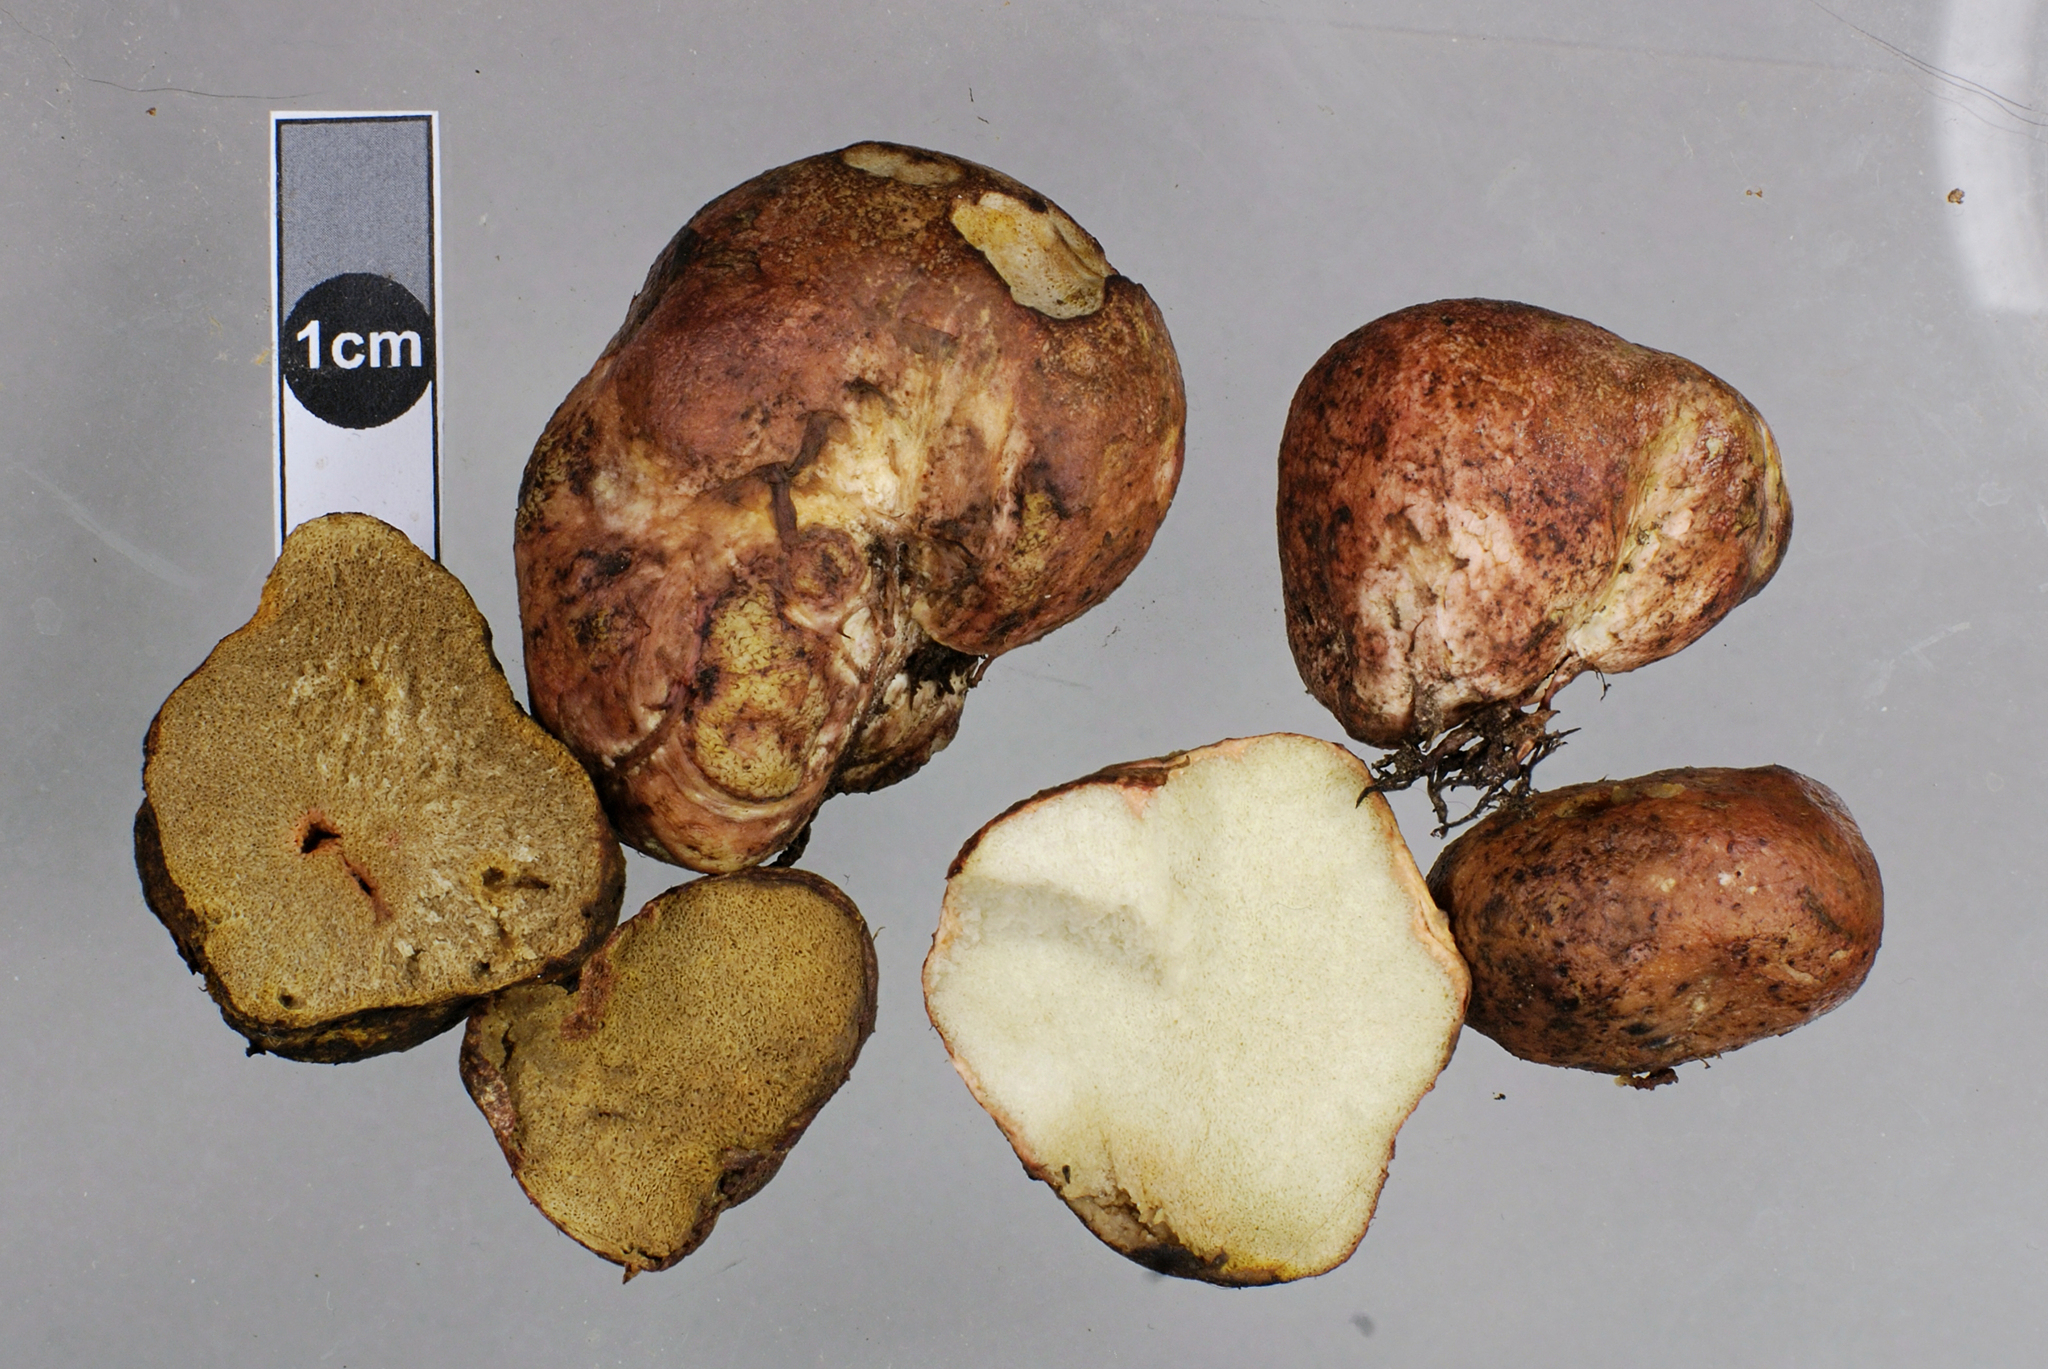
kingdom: Fungi
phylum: Basidiomycota
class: Agaricomycetes
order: Boletales
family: Rhizopogonaceae
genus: Rhizopogon
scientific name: Rhizopogon roseolus
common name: Blushing beard truffle
